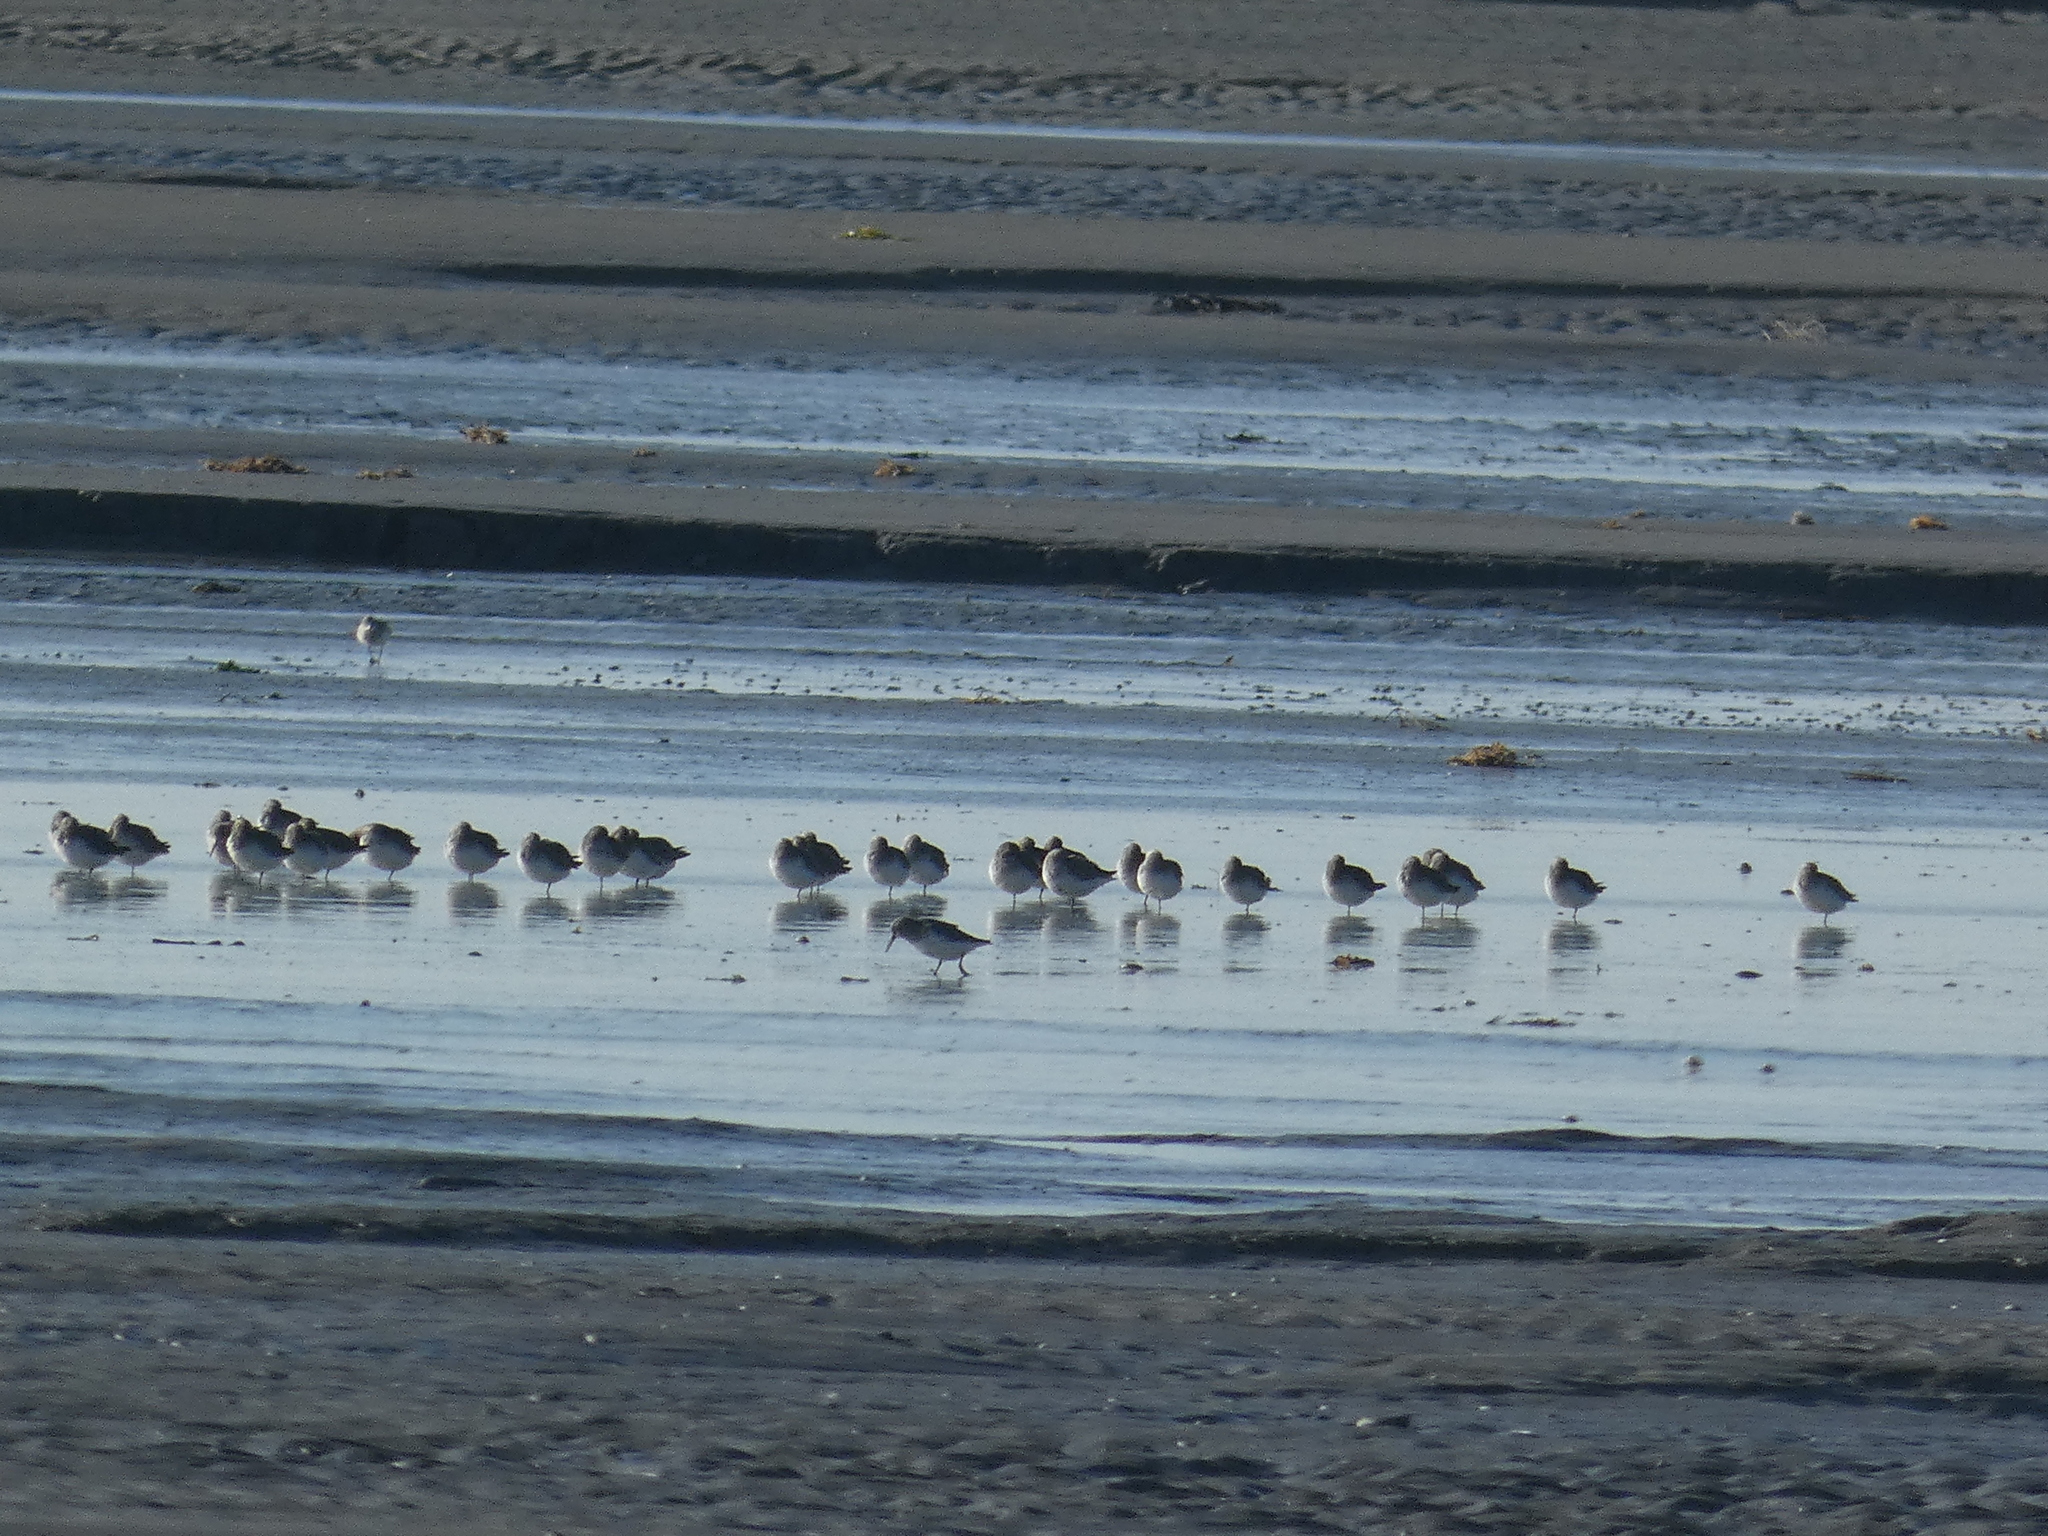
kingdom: Animalia
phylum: Chordata
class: Aves
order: Charadriiformes
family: Scolopacidae
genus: Calidris
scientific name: Calidris alpina
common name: Dunlin
